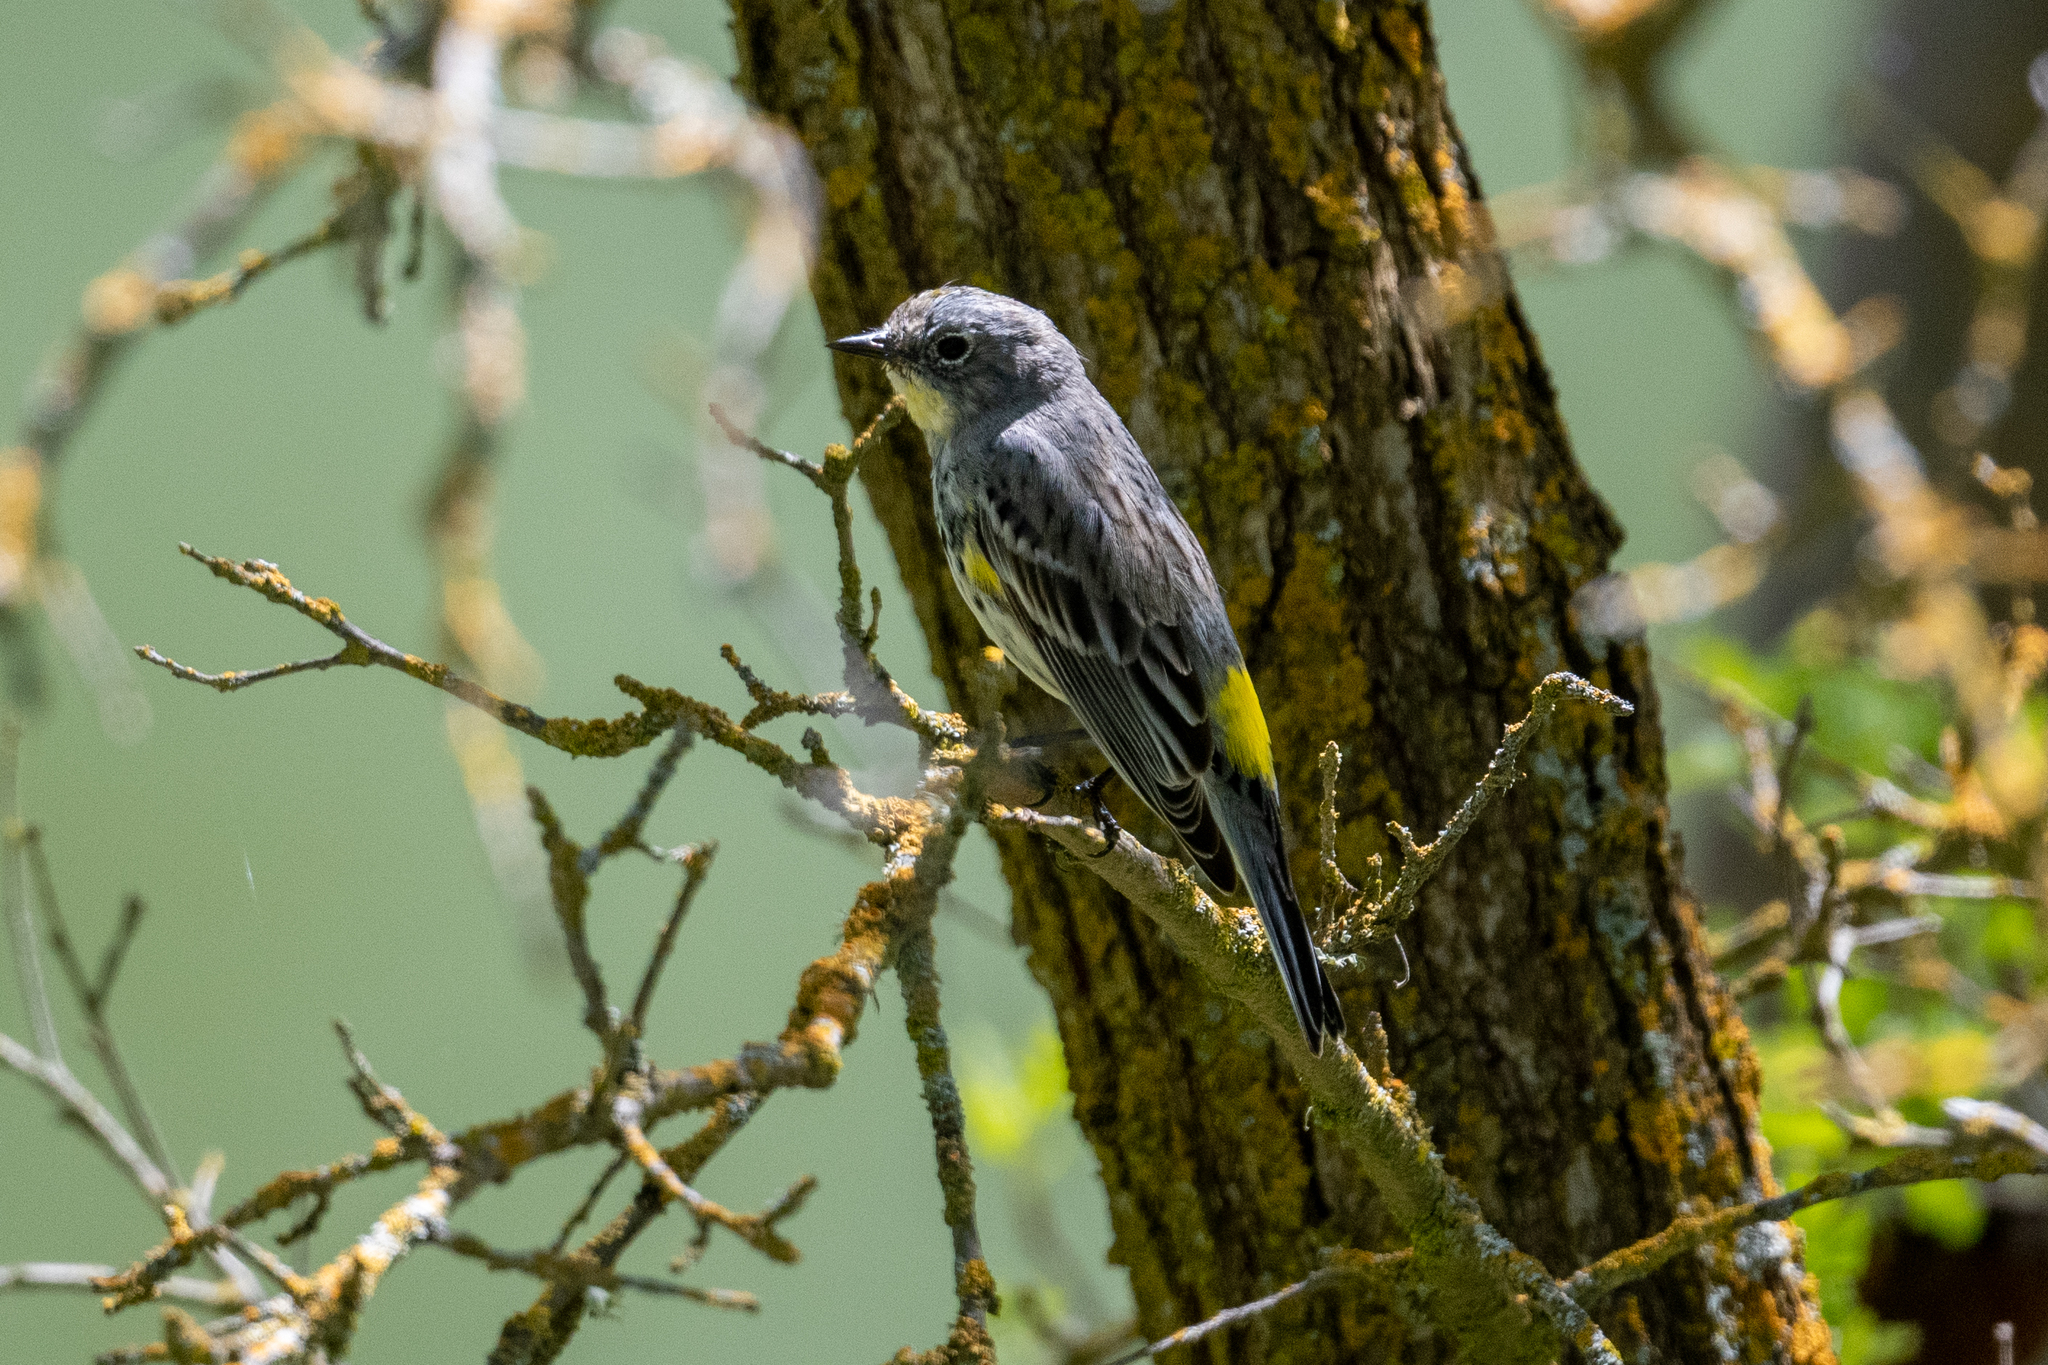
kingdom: Animalia
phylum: Chordata
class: Aves
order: Passeriformes
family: Parulidae
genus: Setophaga
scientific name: Setophaga coronata
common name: Myrtle warbler
